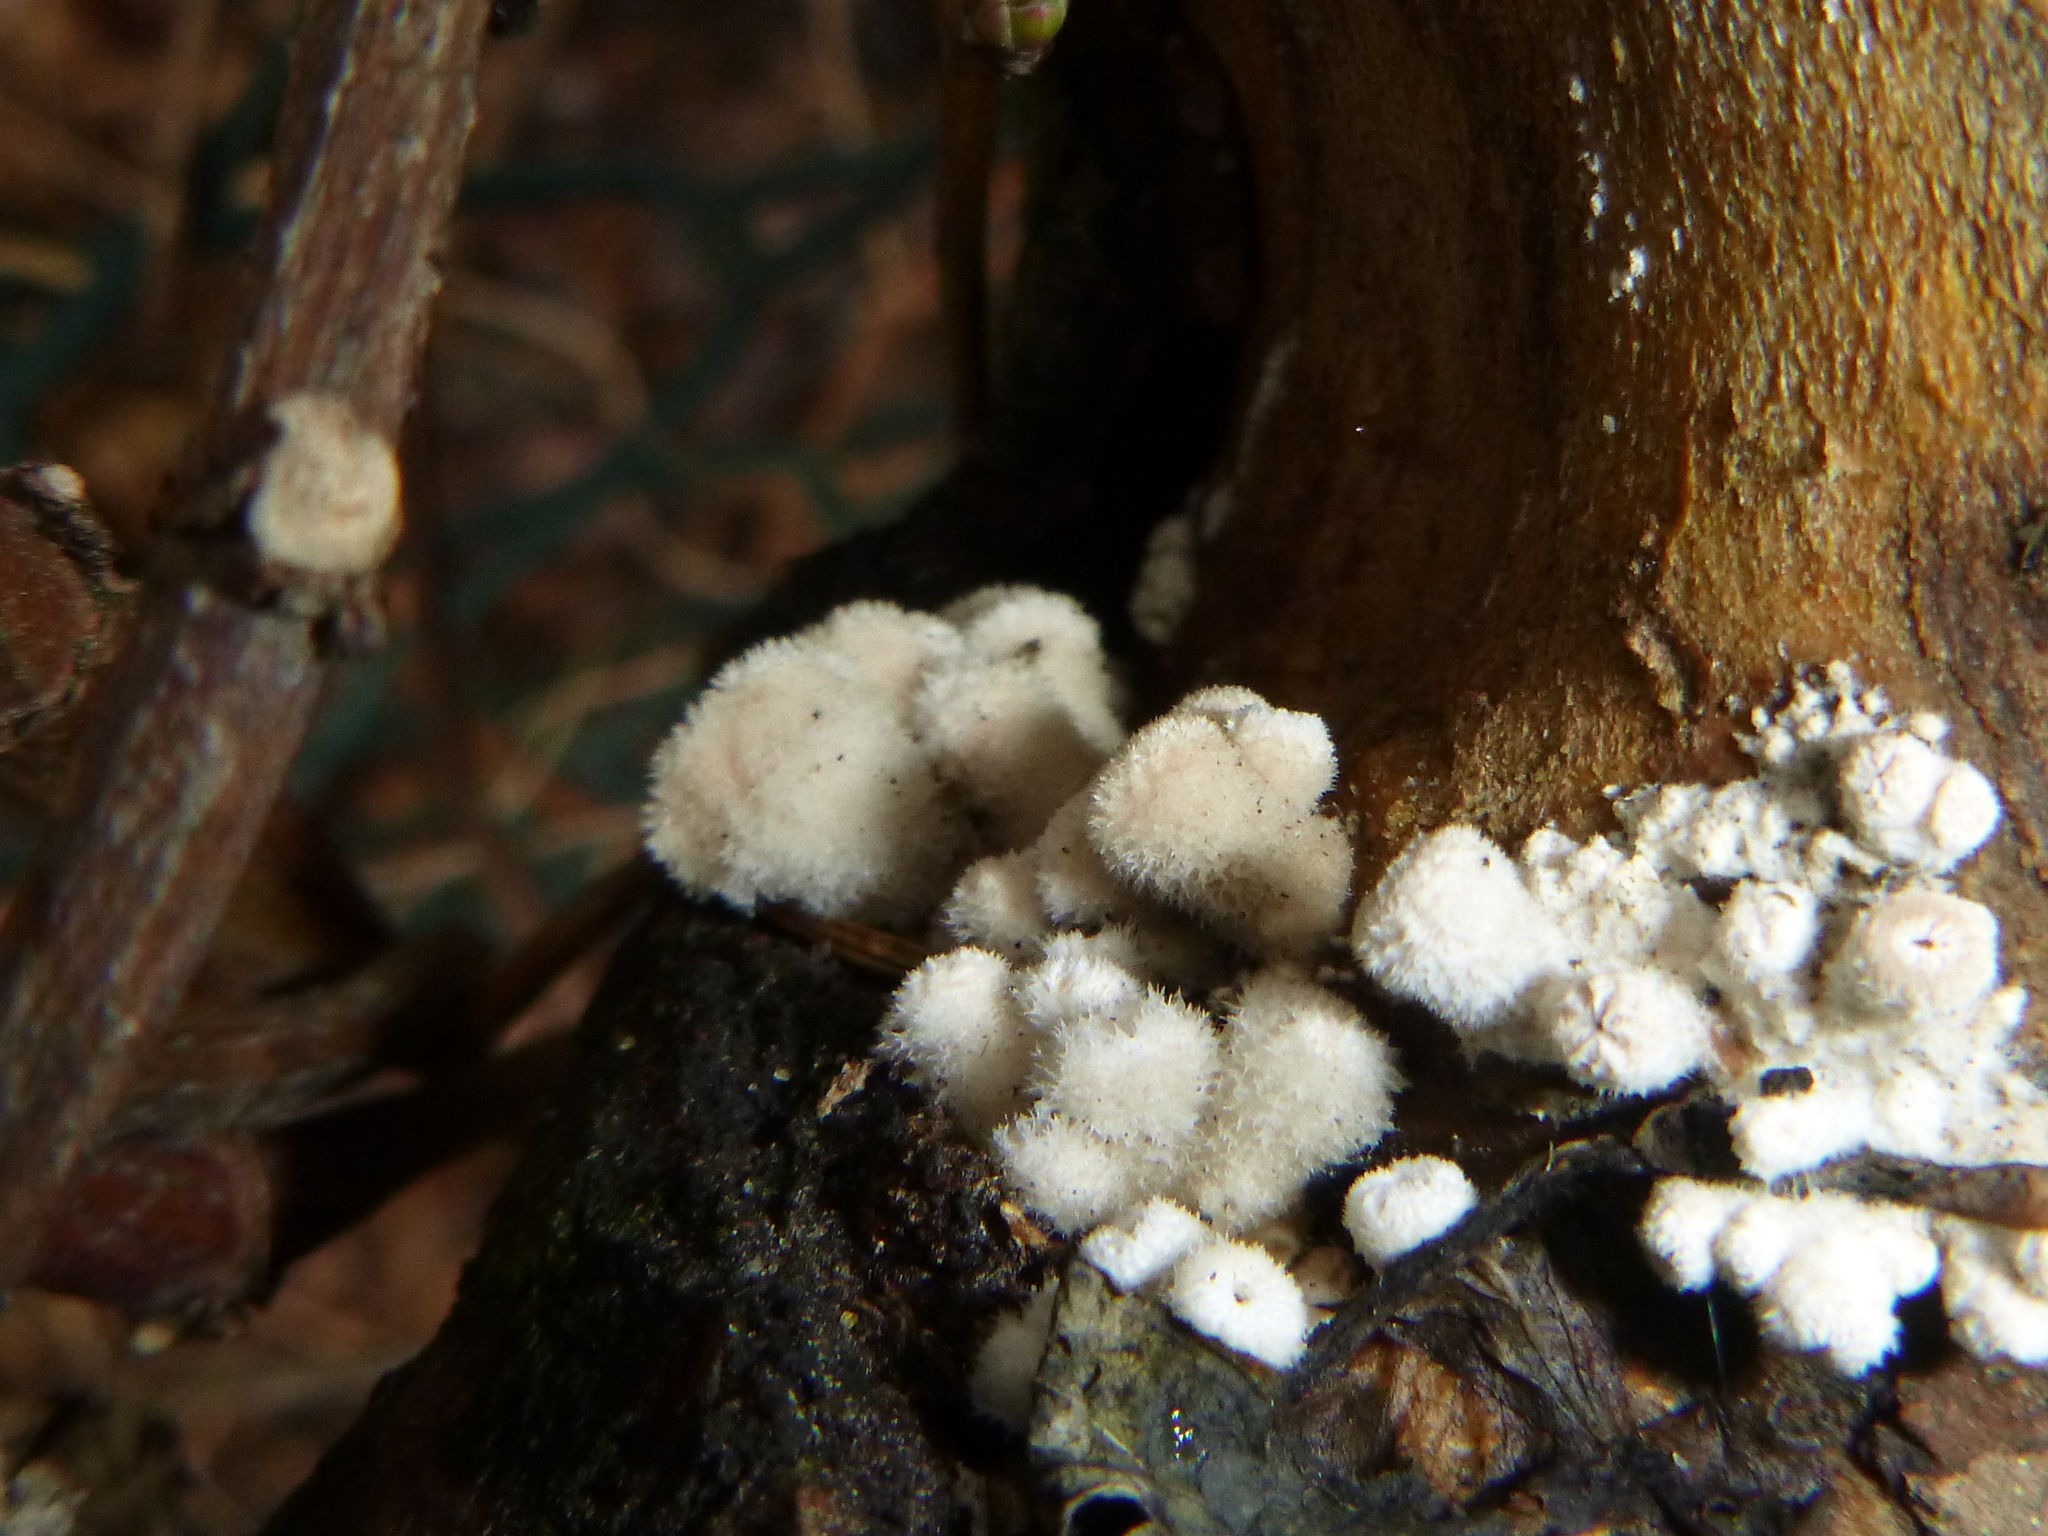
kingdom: Fungi
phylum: Basidiomycota
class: Agaricomycetes
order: Agaricales
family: Schizophyllaceae
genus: Schizophyllum
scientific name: Schizophyllum commune
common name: Common porecrust
